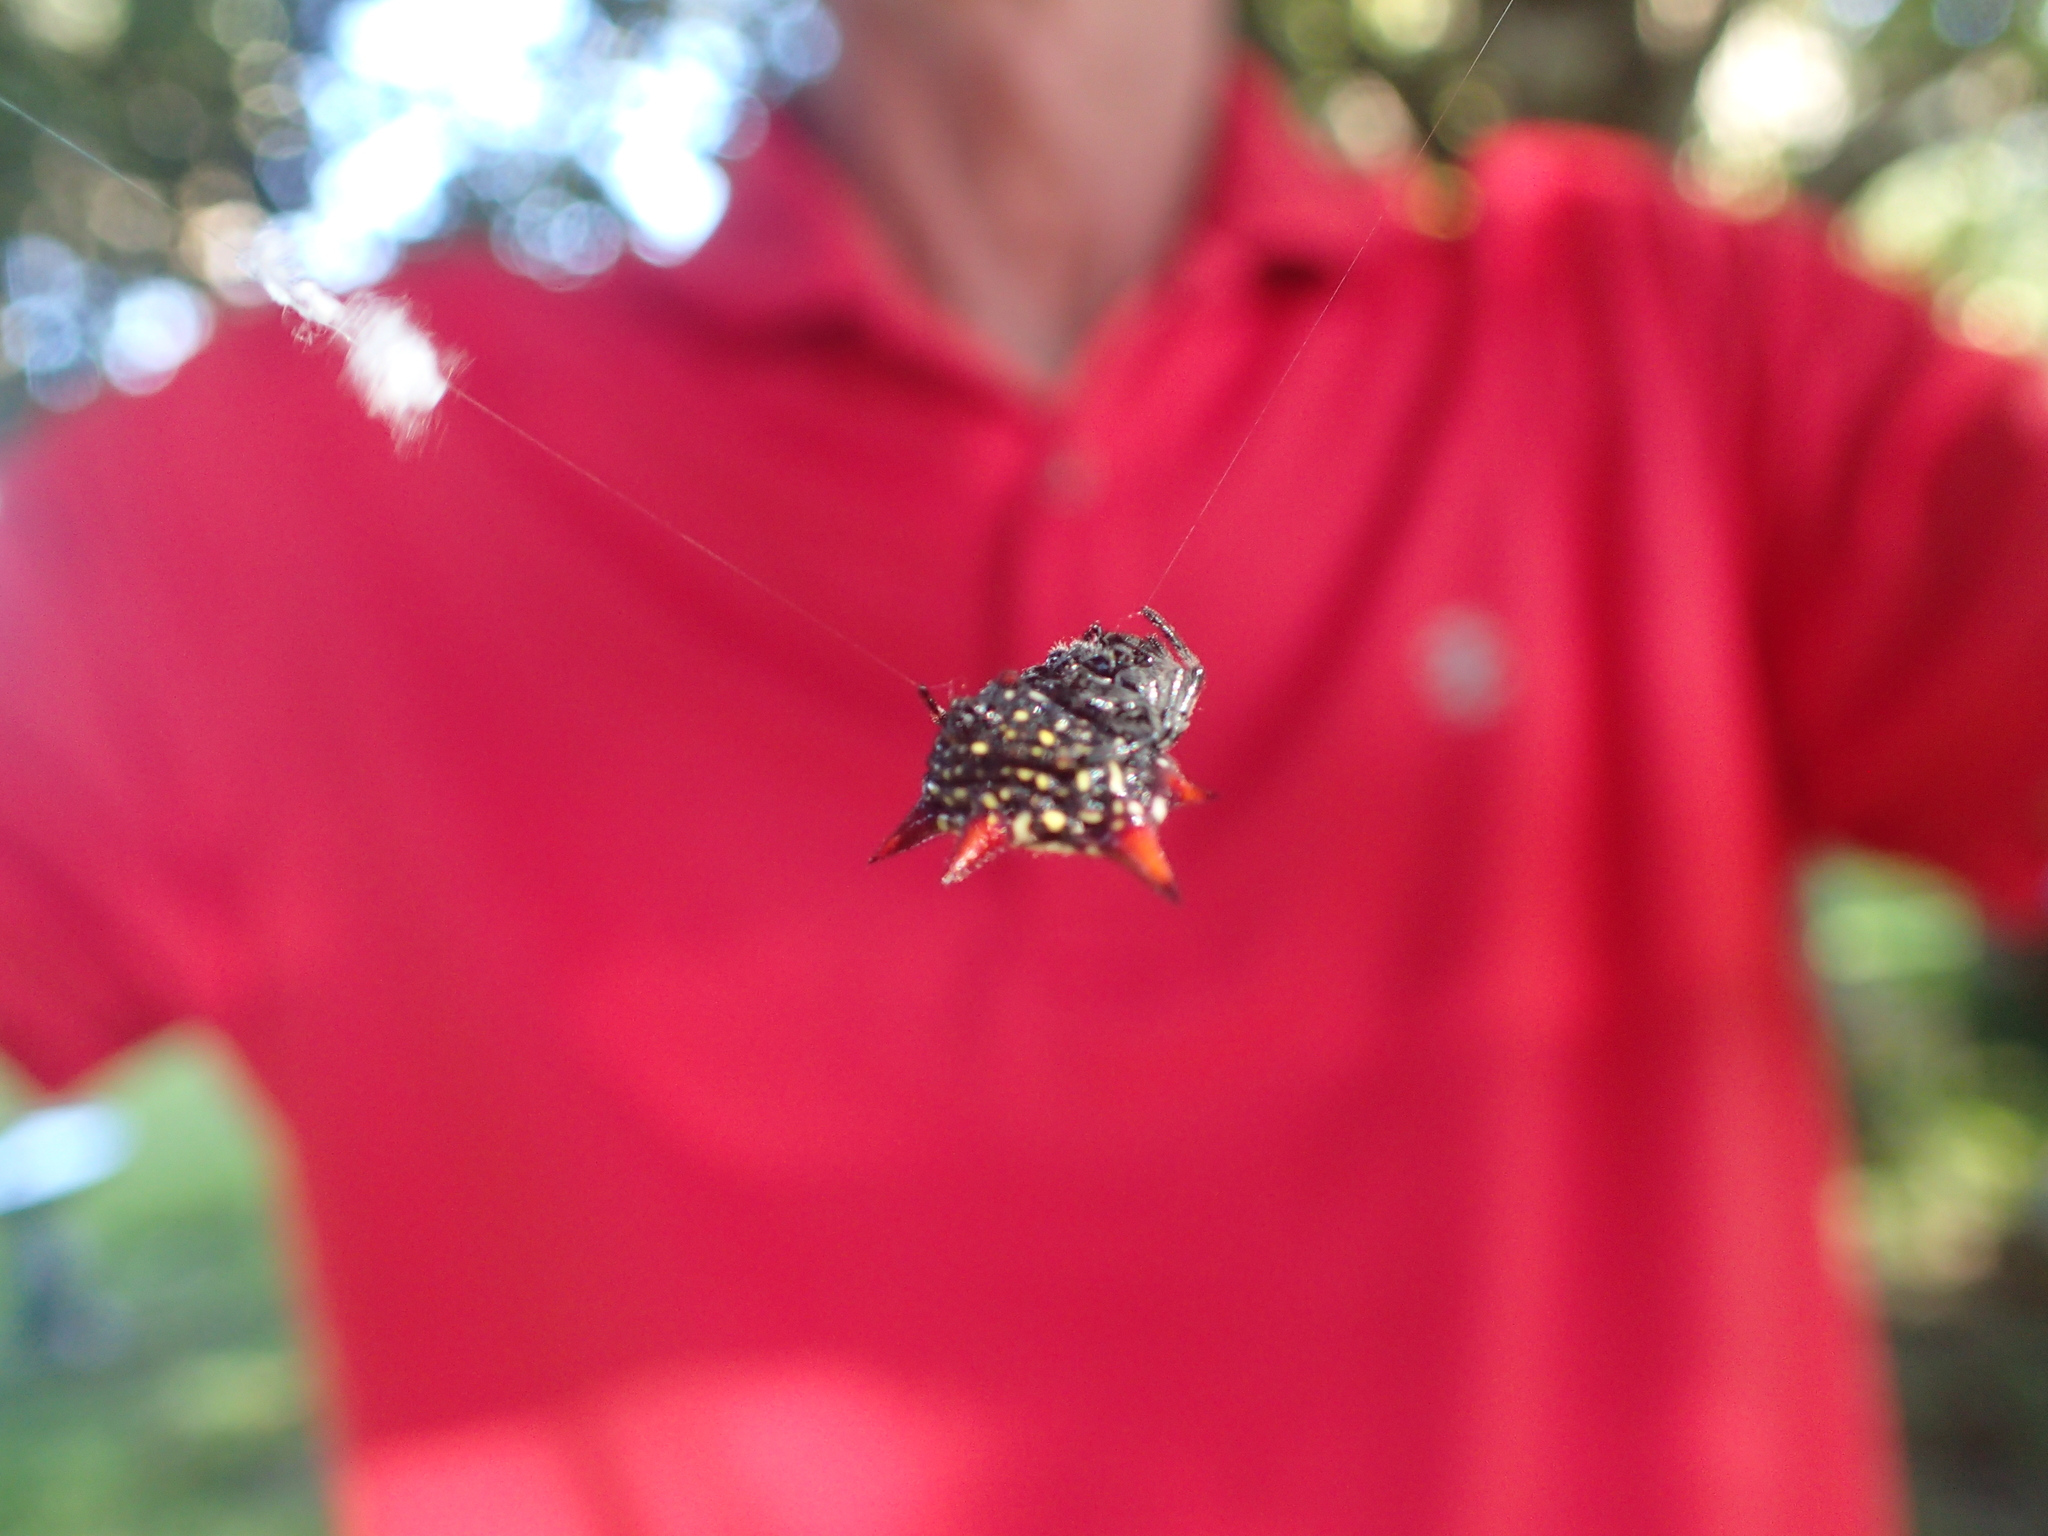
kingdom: Animalia
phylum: Arthropoda
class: Arachnida
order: Araneae
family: Araneidae
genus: Gasteracantha
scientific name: Gasteracantha cancriformis
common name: Orb weavers
